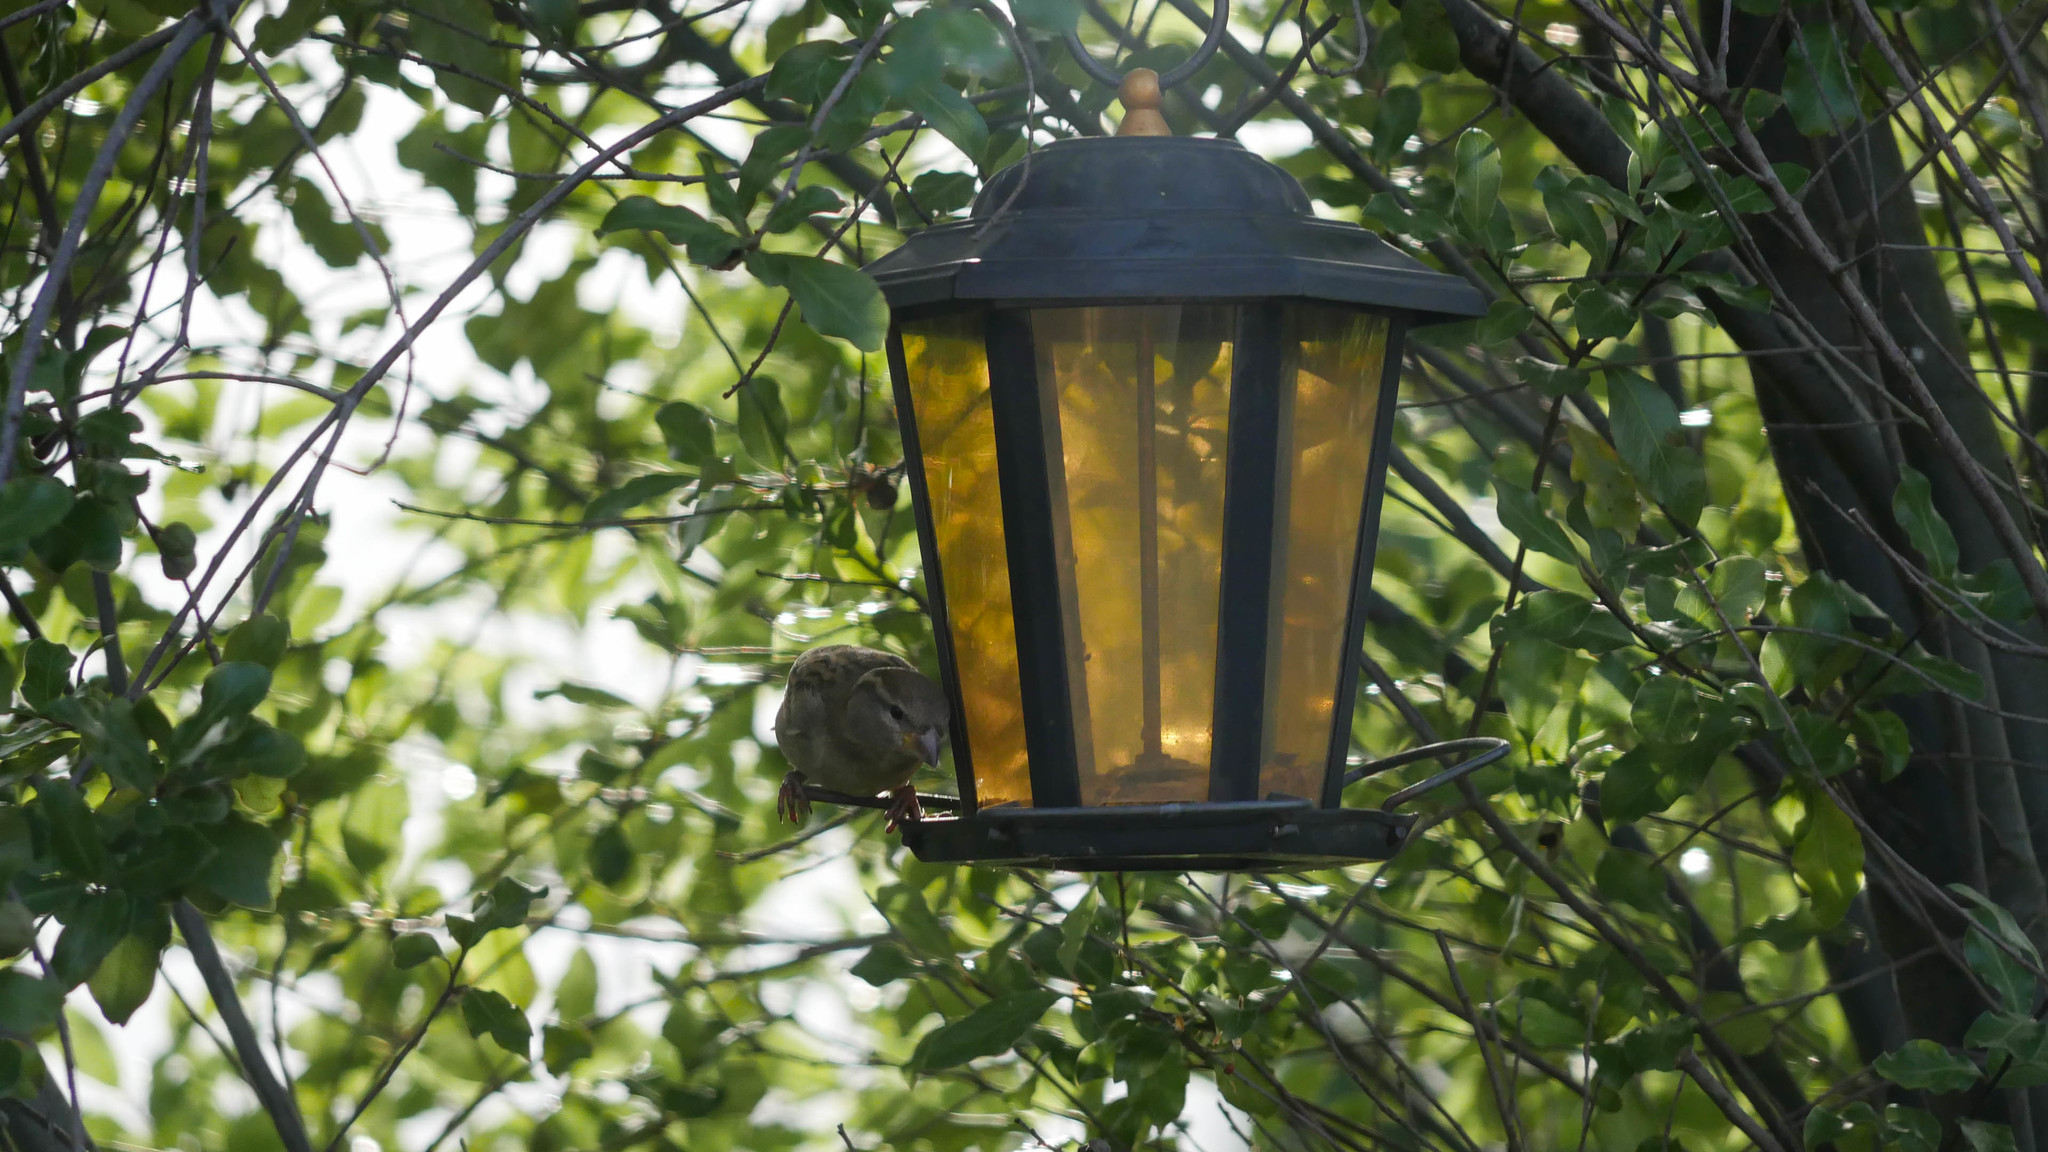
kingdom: Animalia
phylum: Chordata
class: Aves
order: Passeriformes
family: Passeridae
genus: Passer
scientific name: Passer domesticus
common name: House sparrow
